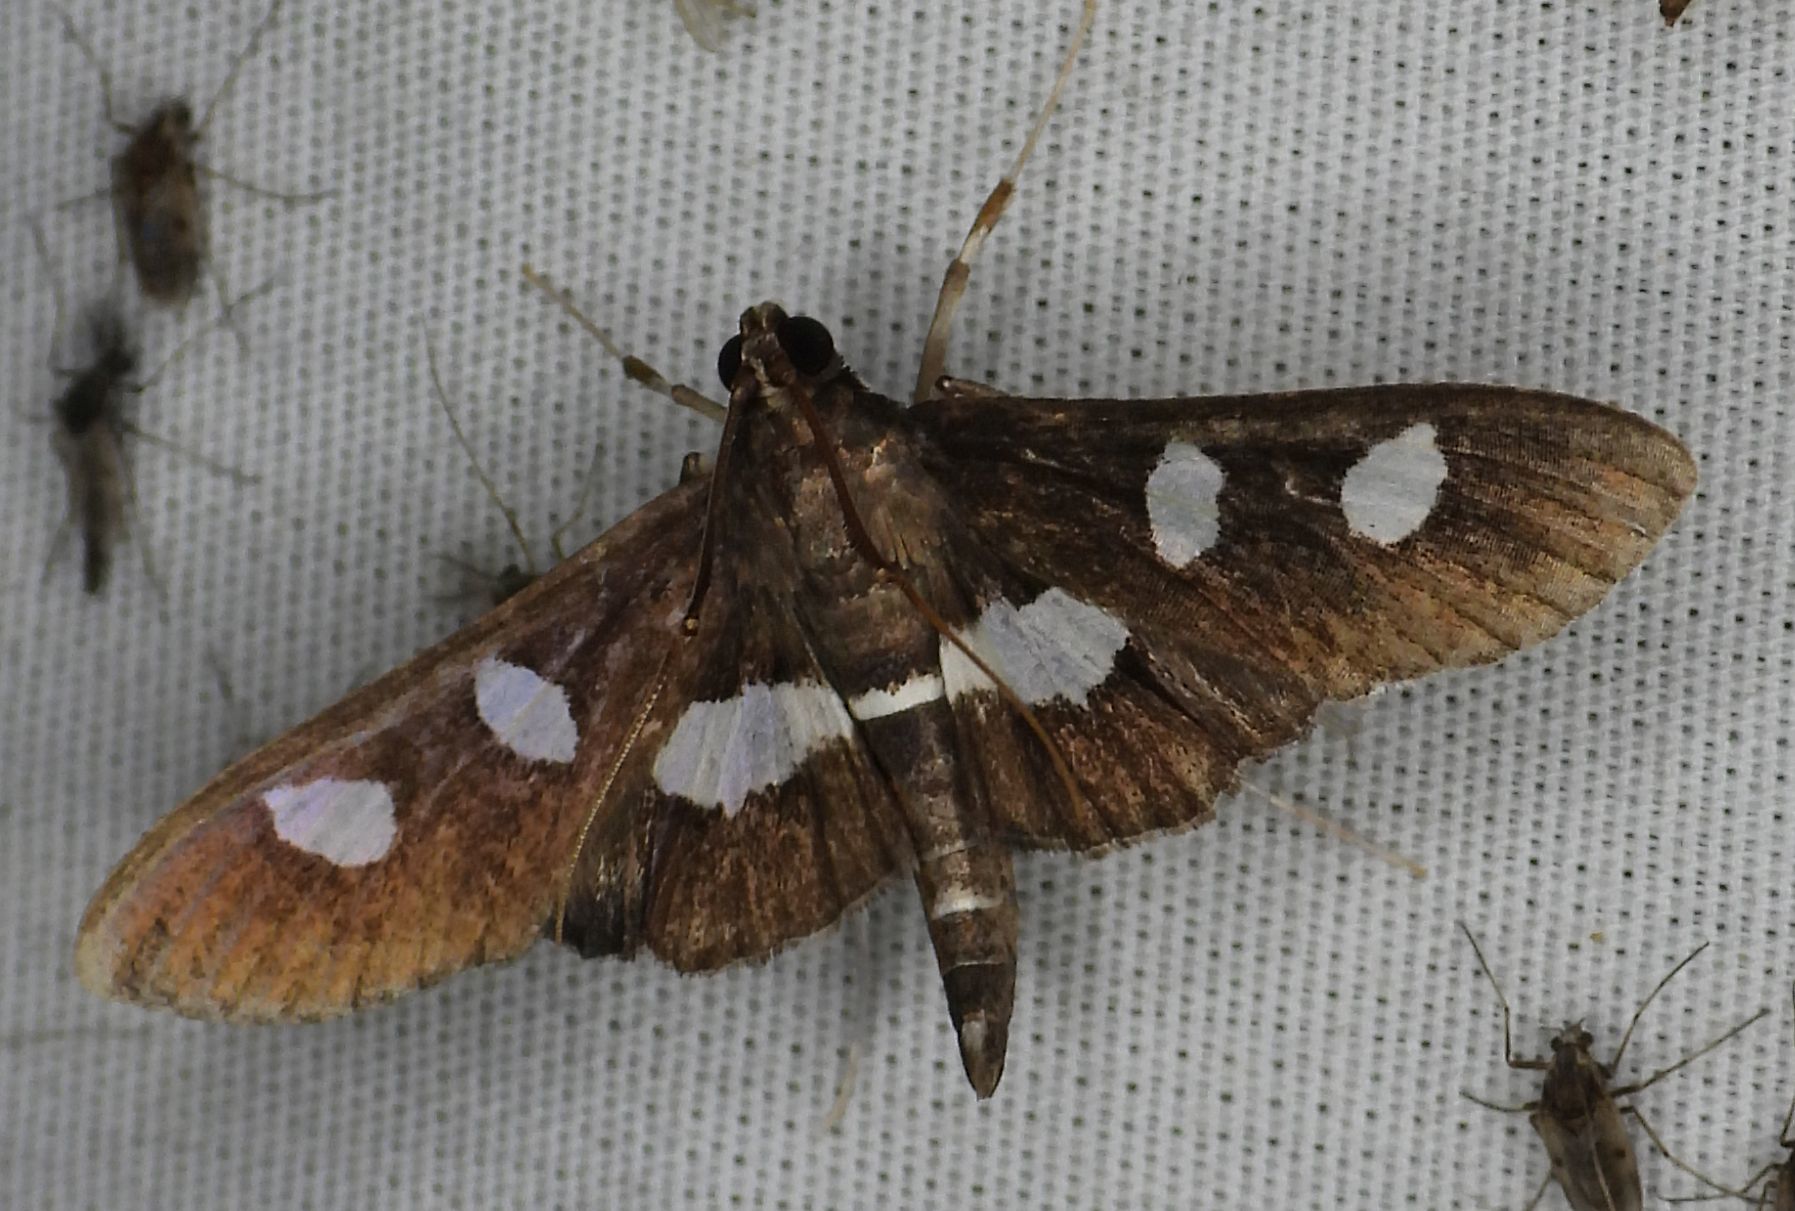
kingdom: Animalia
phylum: Arthropoda
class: Insecta
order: Lepidoptera
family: Crambidae
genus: Desmia
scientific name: Desmia
